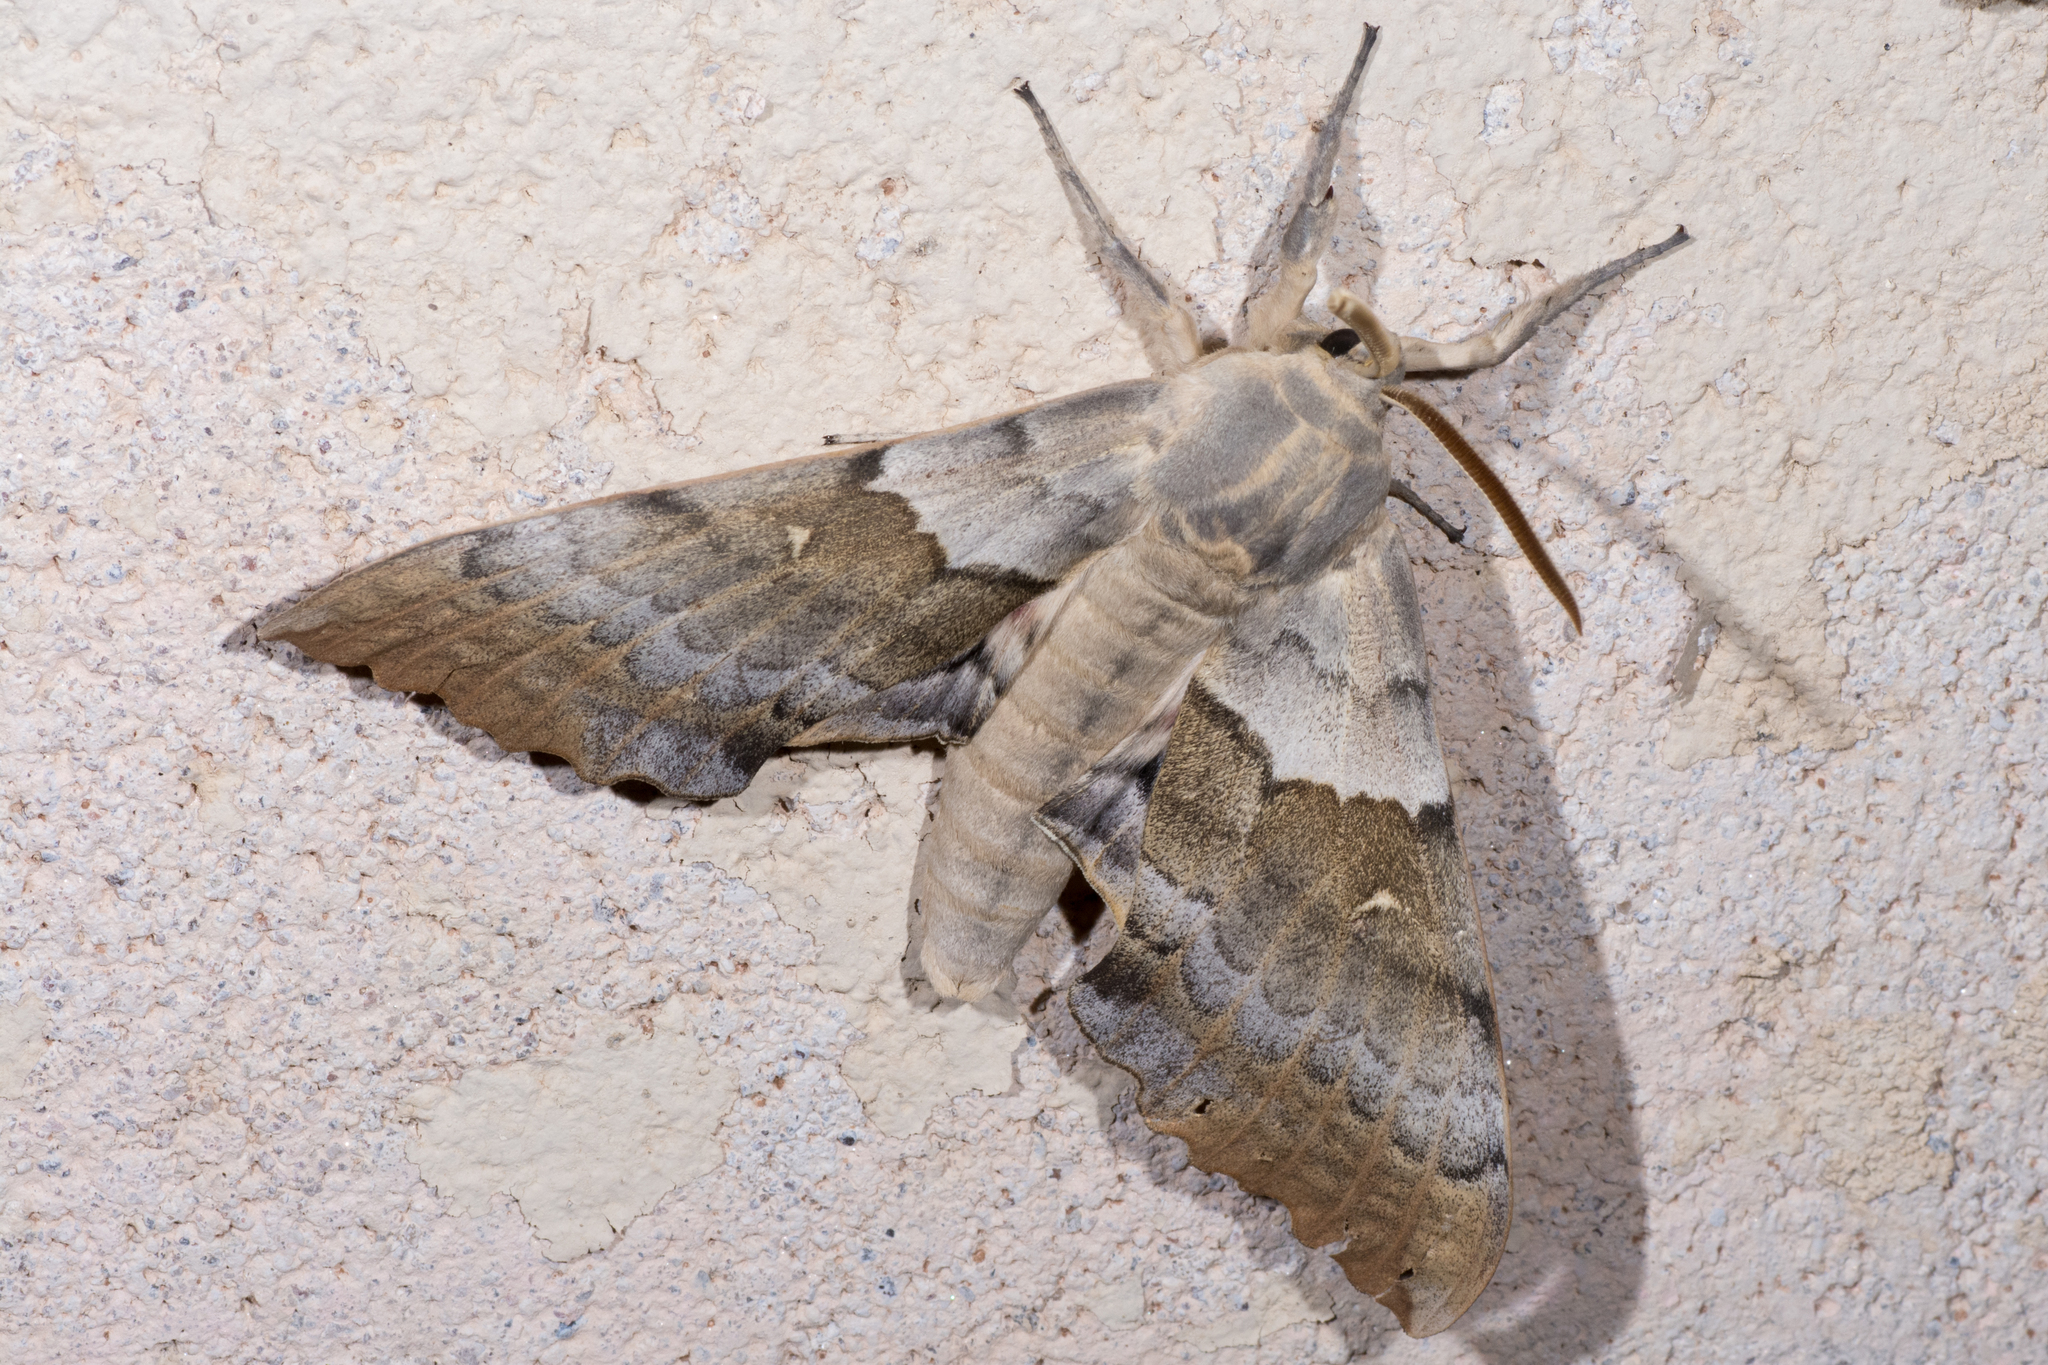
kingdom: Animalia
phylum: Arthropoda
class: Insecta
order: Lepidoptera
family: Sphingidae
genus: Pachysphinx
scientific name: Pachysphinx occidentalis
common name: Western poplar sphinx
